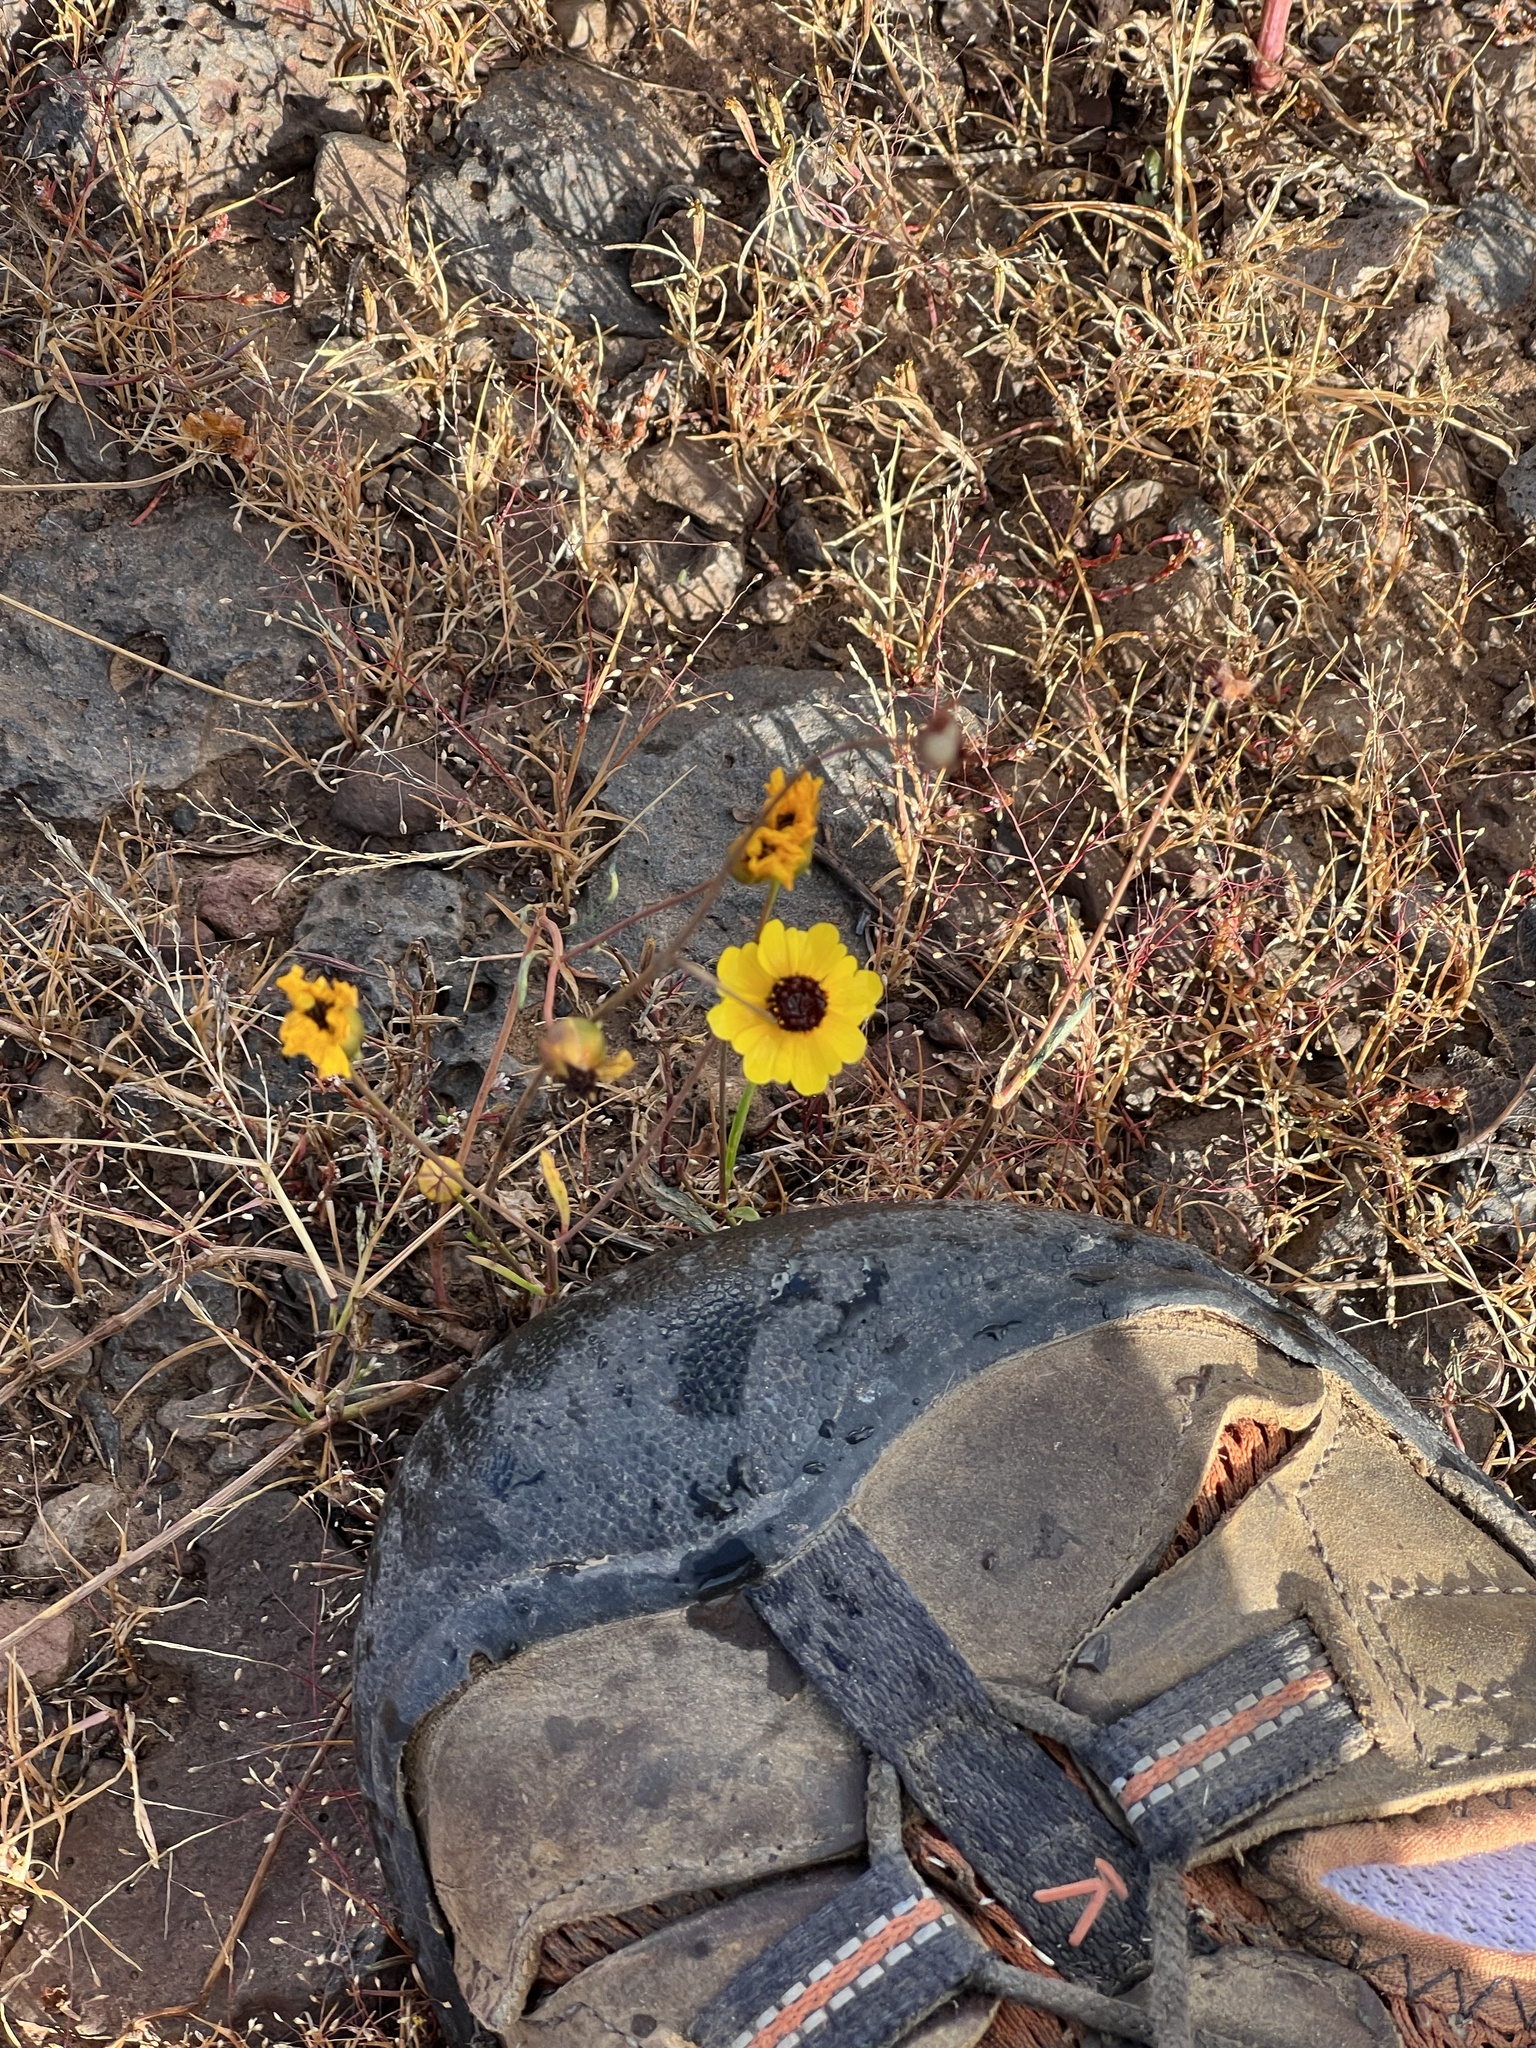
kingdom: Plantae
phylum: Tracheophyta
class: Magnoliopsida
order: Asterales
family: Asteraceae
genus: Coreopsis
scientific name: Coreopsis tinctoria
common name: Garden tickseed
